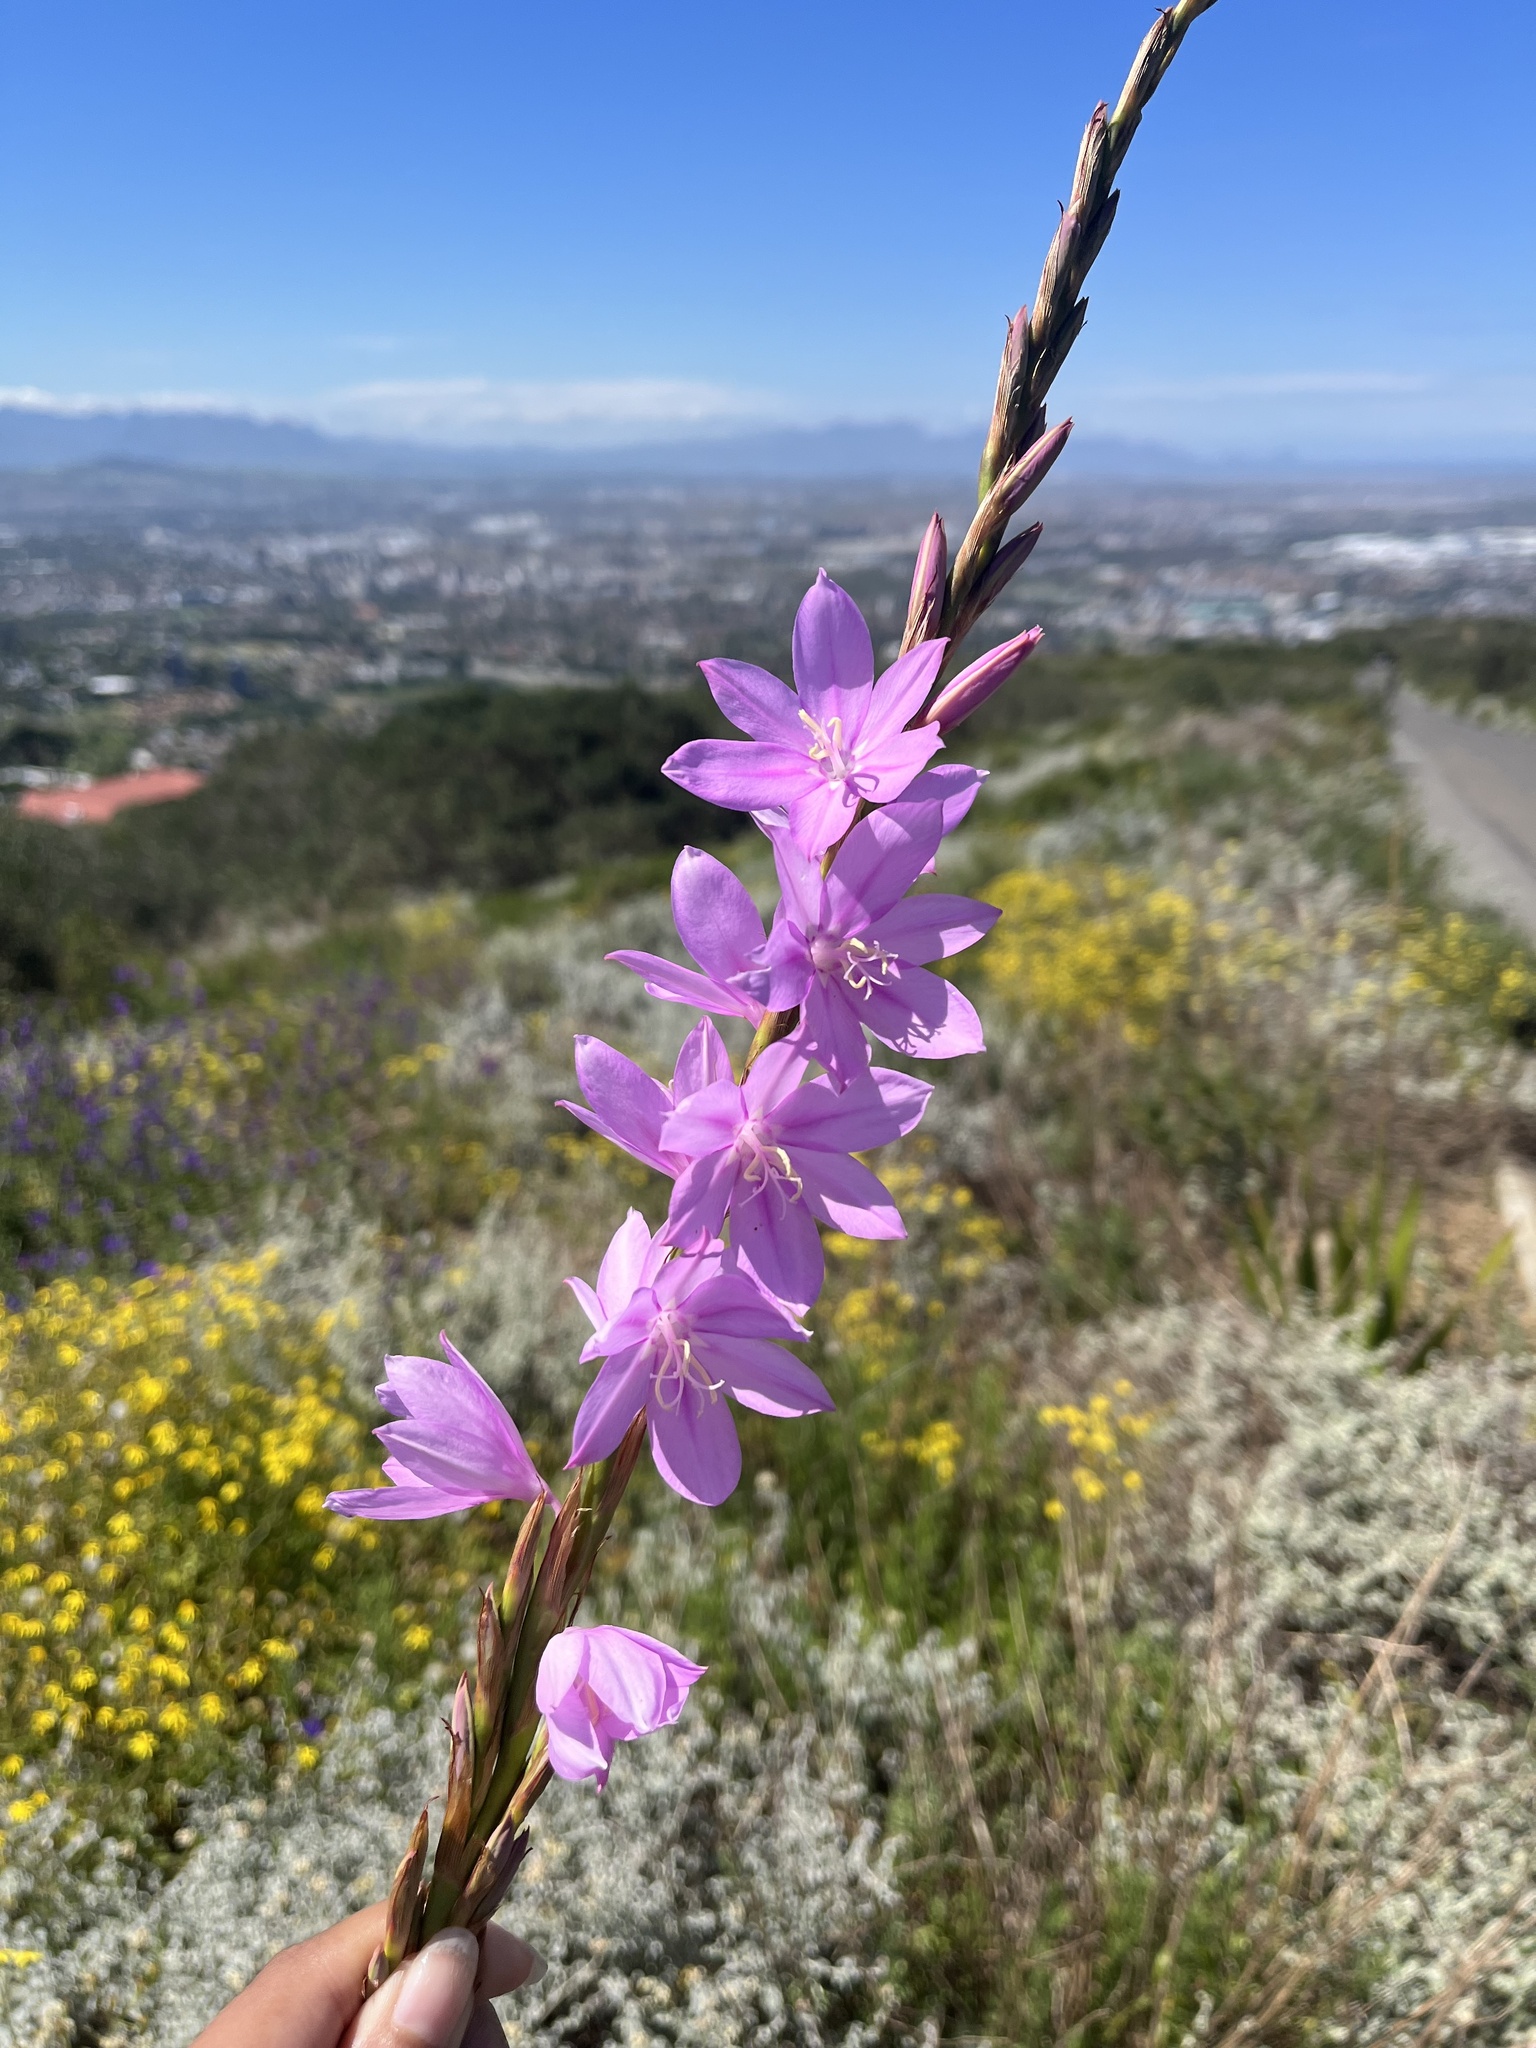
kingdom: Plantae
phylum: Tracheophyta
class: Liliopsida
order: Asparagales
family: Iridaceae
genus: Watsonia
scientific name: Watsonia marginata
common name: Fragrant bugle-lily
